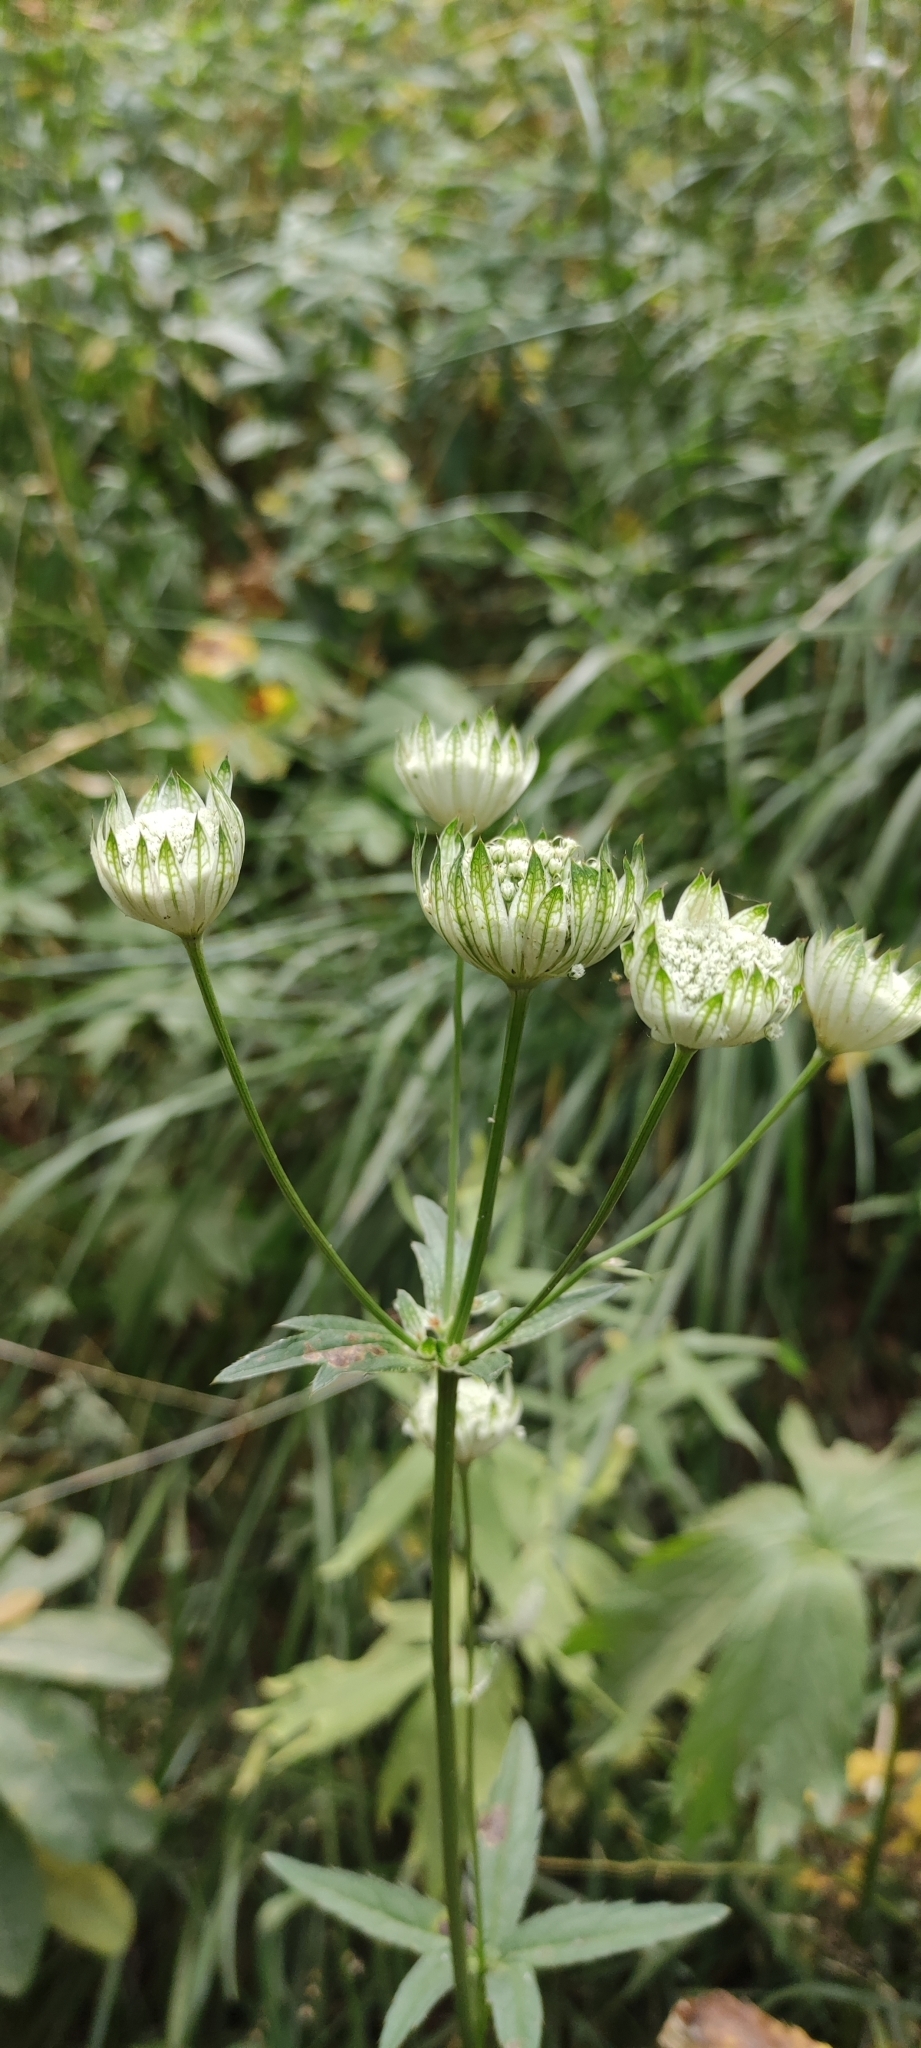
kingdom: Plantae
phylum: Tracheophyta
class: Magnoliopsida
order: Apiales
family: Apiaceae
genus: Astrantia
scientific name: Astrantia major
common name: Greater masterwort
